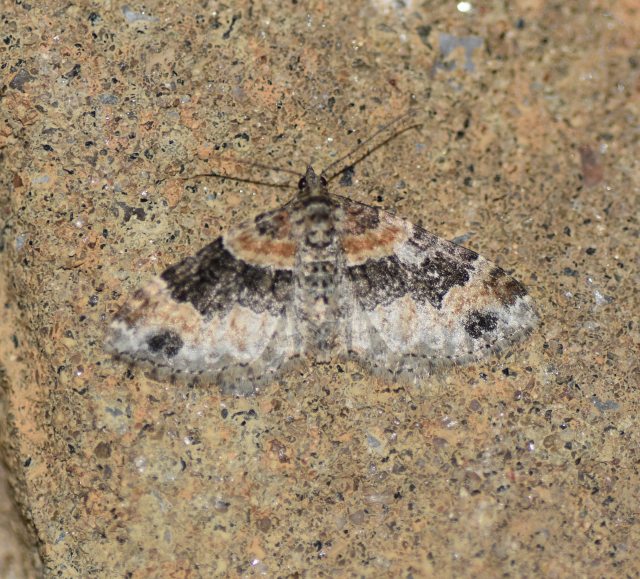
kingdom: Animalia
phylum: Arthropoda
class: Insecta
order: Lepidoptera
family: Geometridae
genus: Xanthorhoe
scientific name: Xanthorhoe ferrugata
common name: Dark-barred twin-spot carpet
